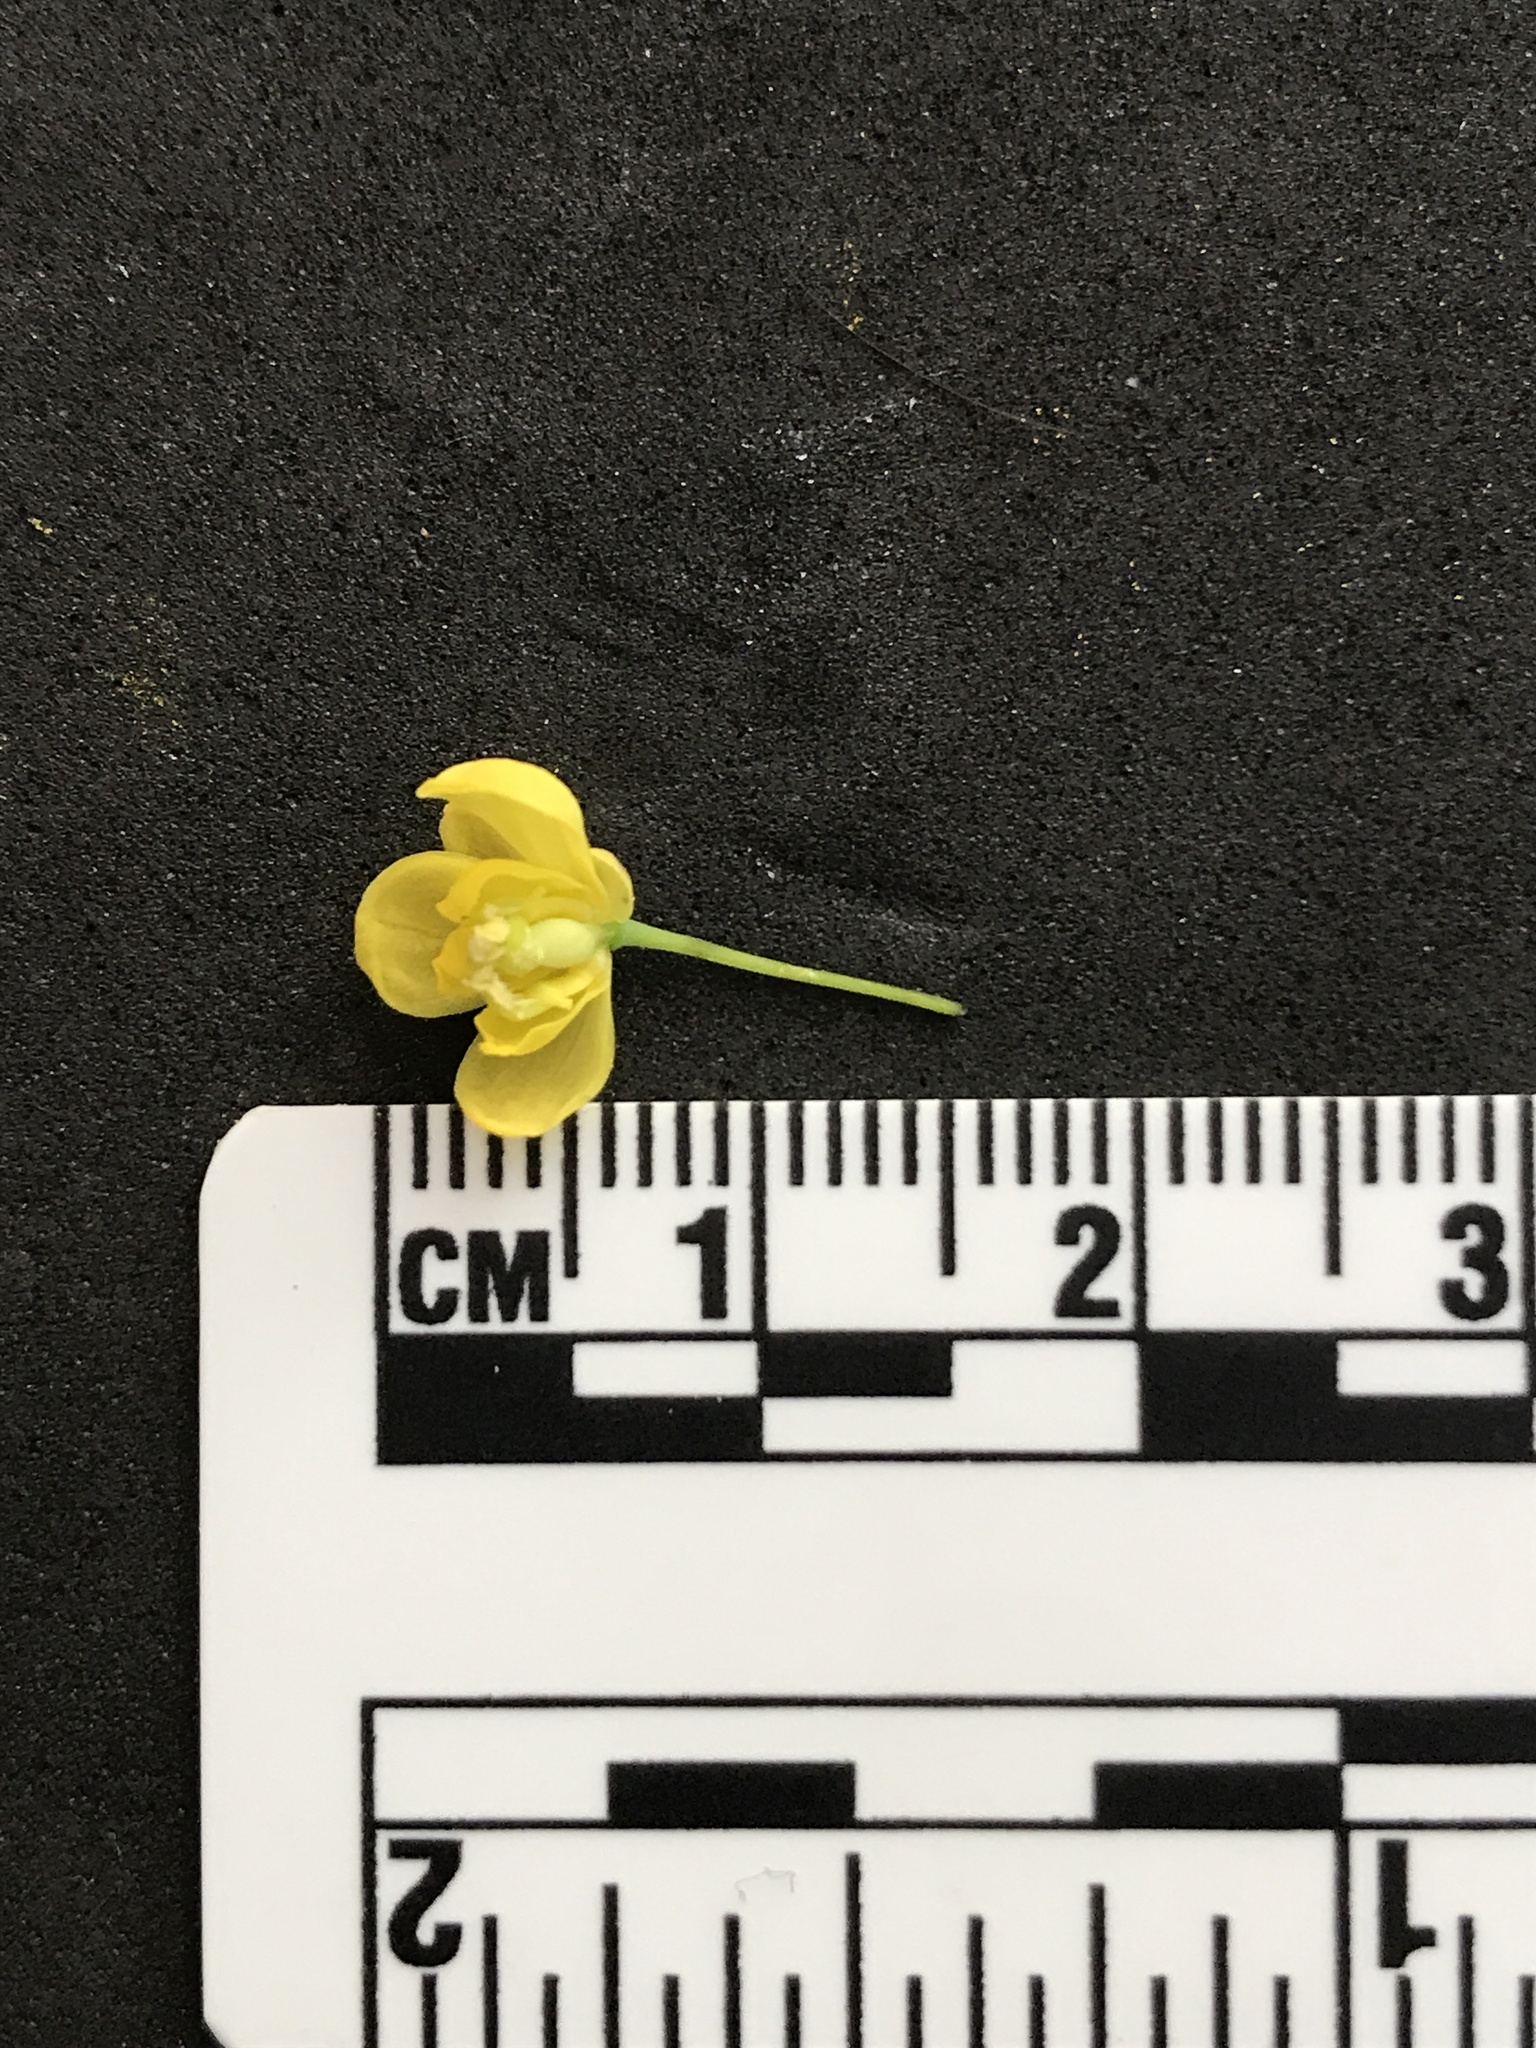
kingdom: Plantae
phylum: Tracheophyta
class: Magnoliopsida
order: Ranunculales
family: Berberidaceae
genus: Mahonia
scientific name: Mahonia aquifolium
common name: Oregon-grape
